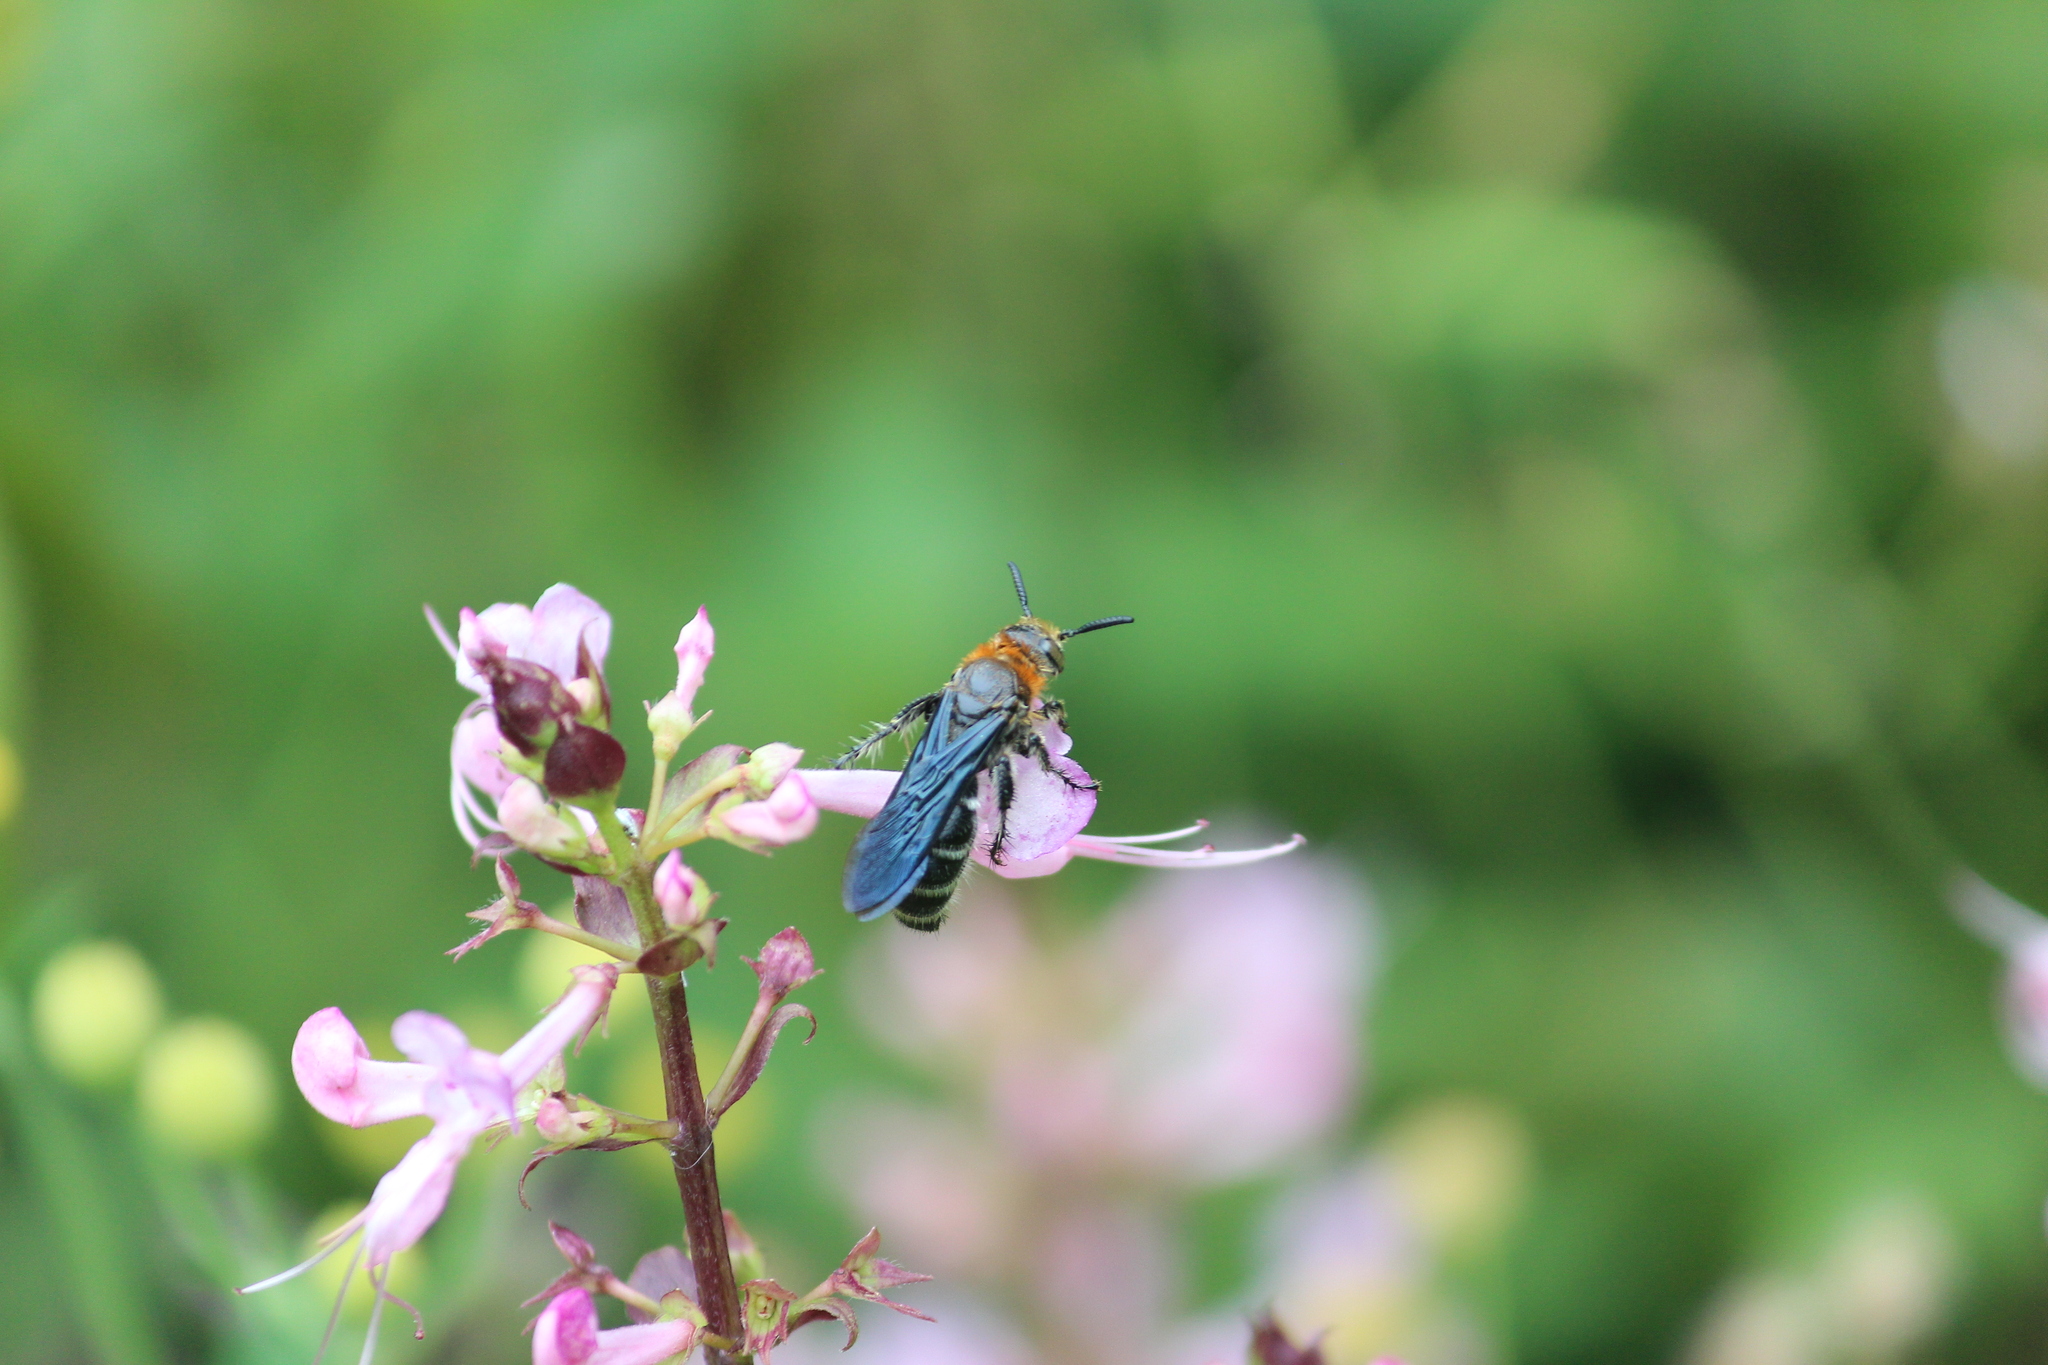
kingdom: Animalia
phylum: Arthropoda
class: Insecta
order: Hymenoptera
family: Scoliidae
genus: Cathimeris
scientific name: Cathimeris
